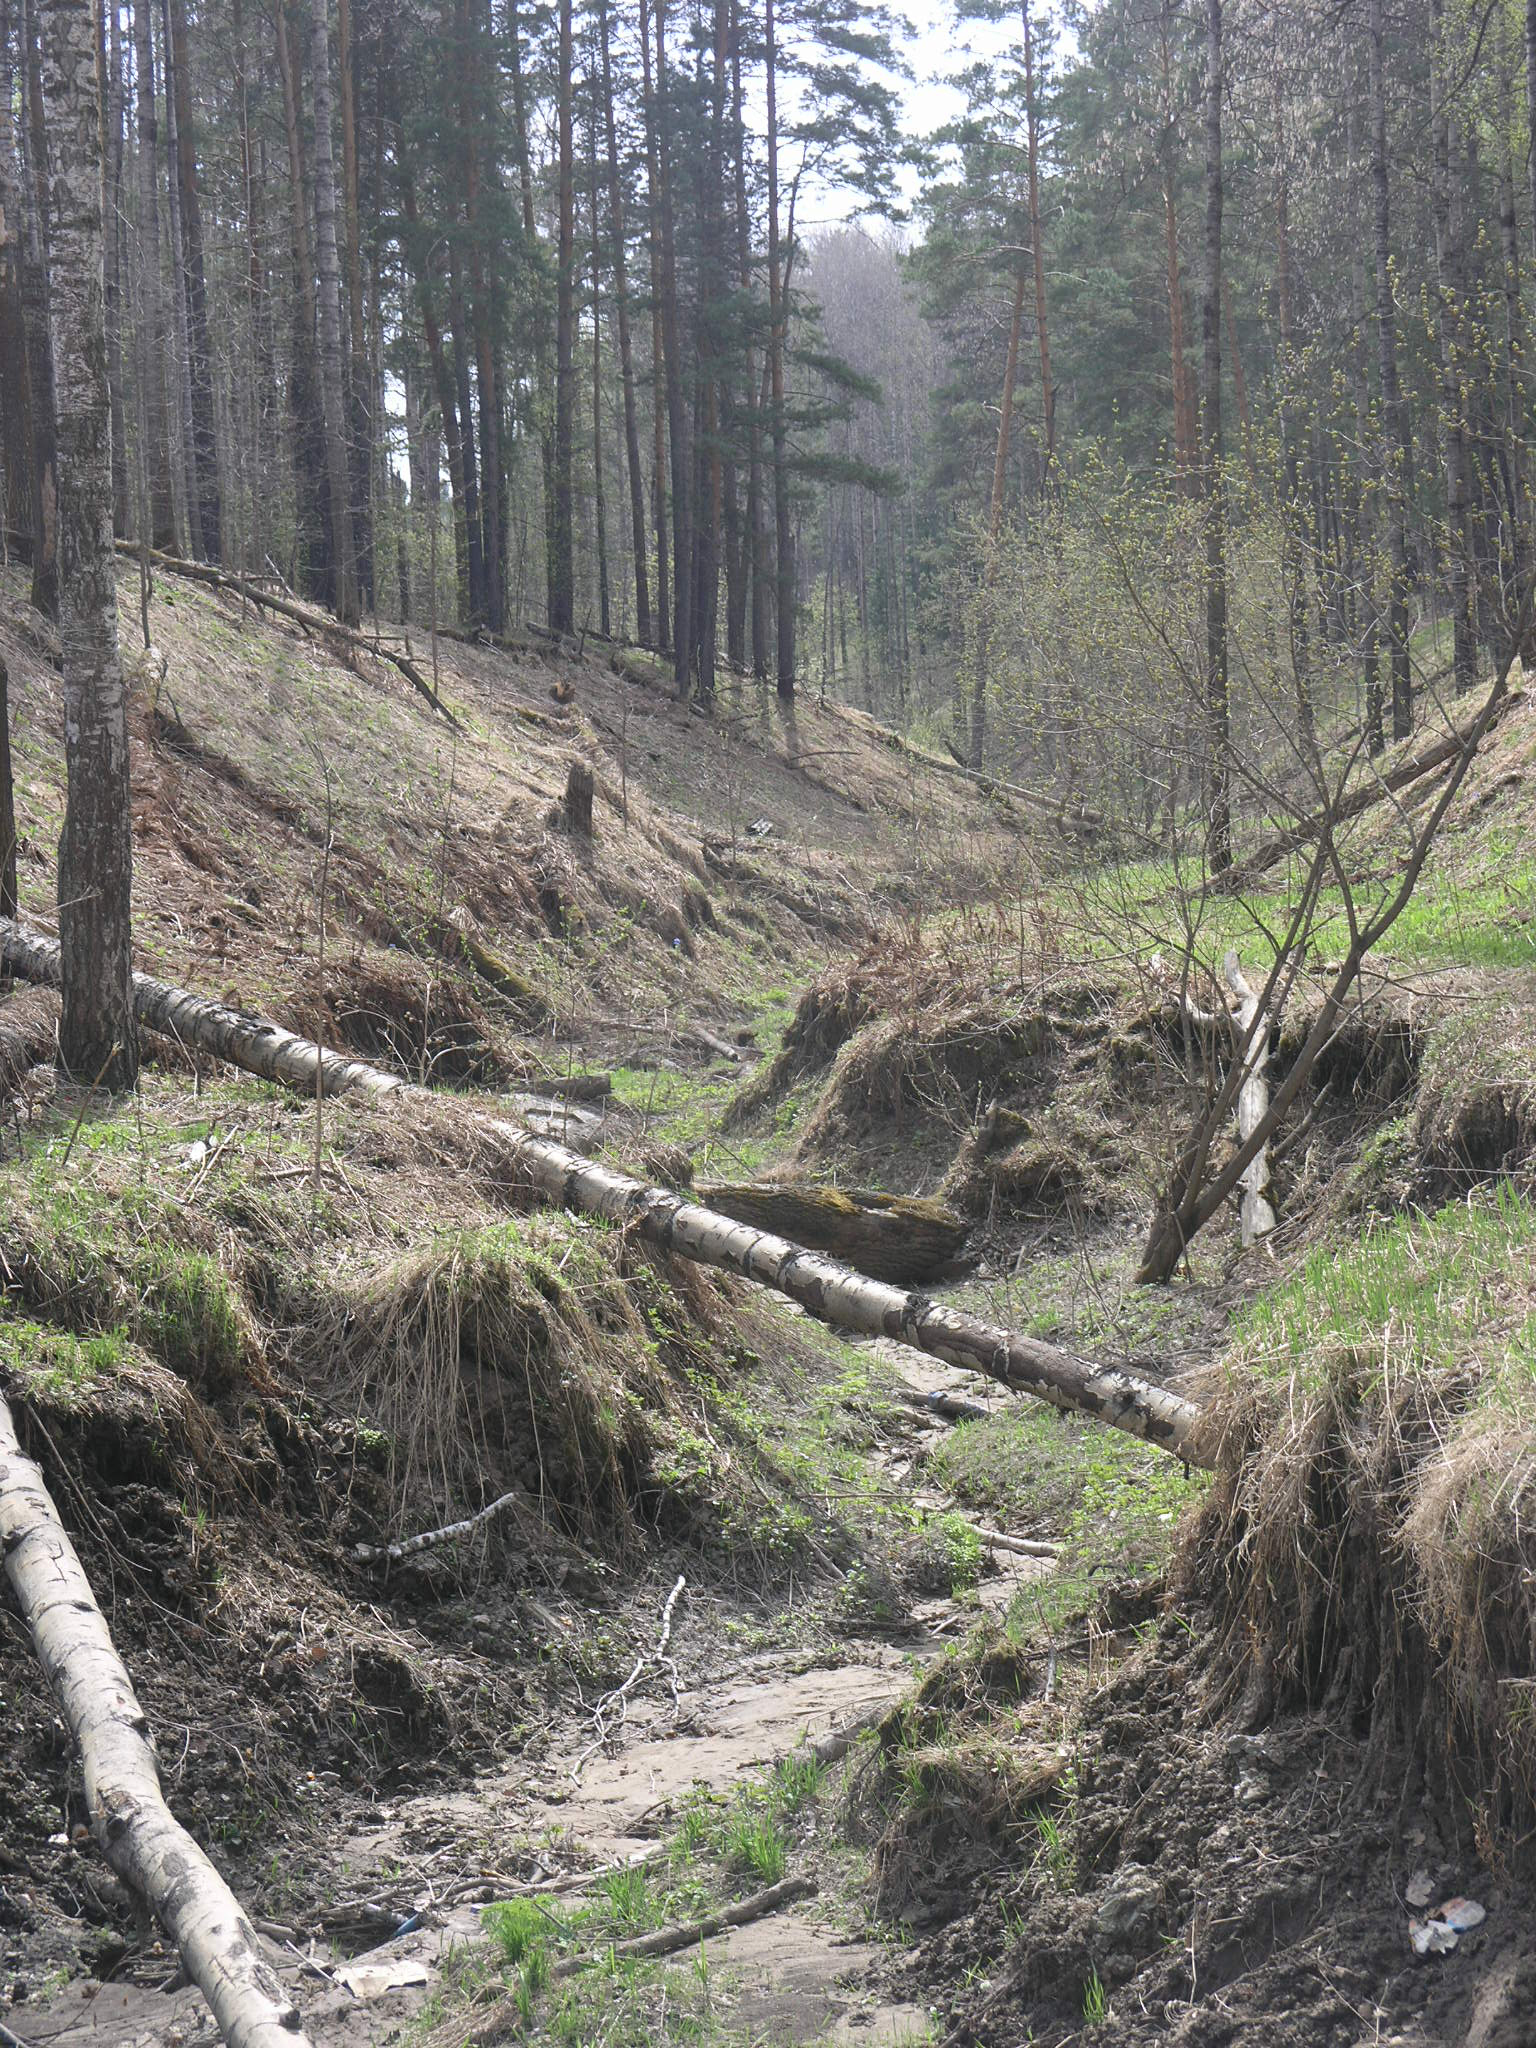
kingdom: Plantae
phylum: Tracheophyta
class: Pinopsida
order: Pinales
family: Pinaceae
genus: Pinus
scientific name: Pinus sylvestris
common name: Scots pine
